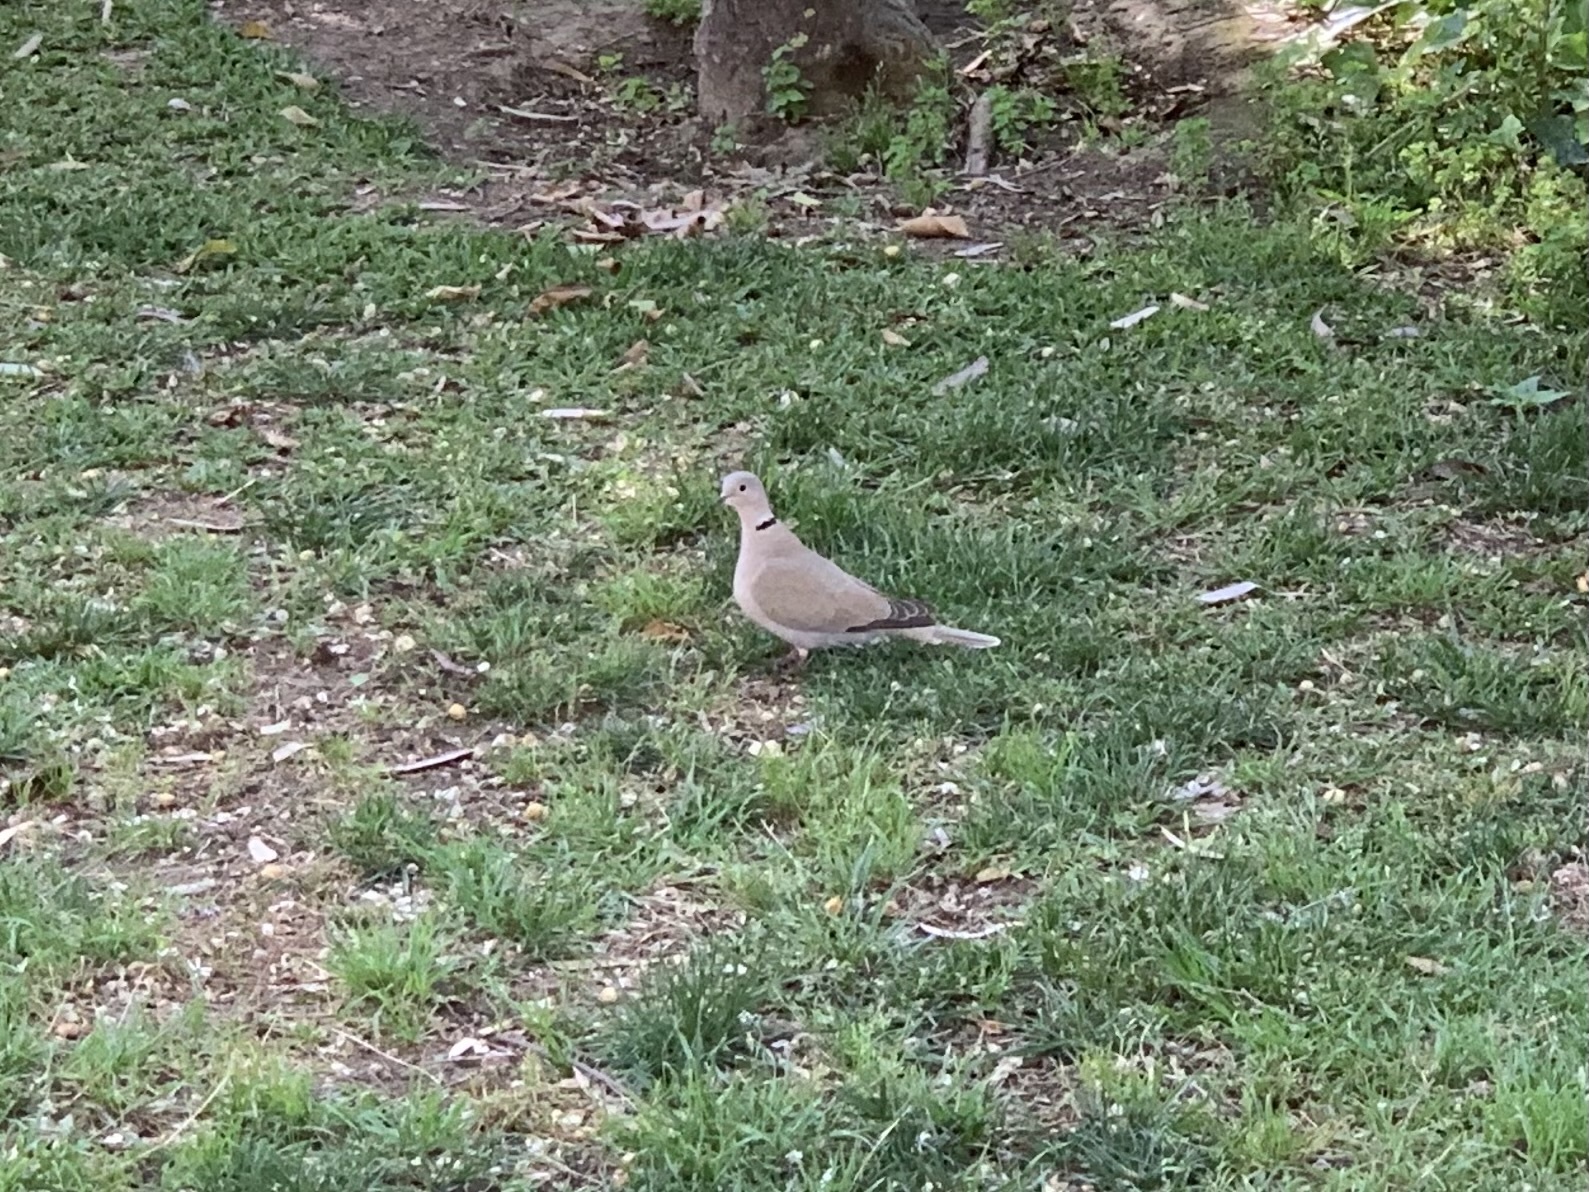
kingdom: Animalia
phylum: Chordata
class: Aves
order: Columbiformes
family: Columbidae
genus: Streptopelia
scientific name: Streptopelia decaocto
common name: Eurasian collared dove
